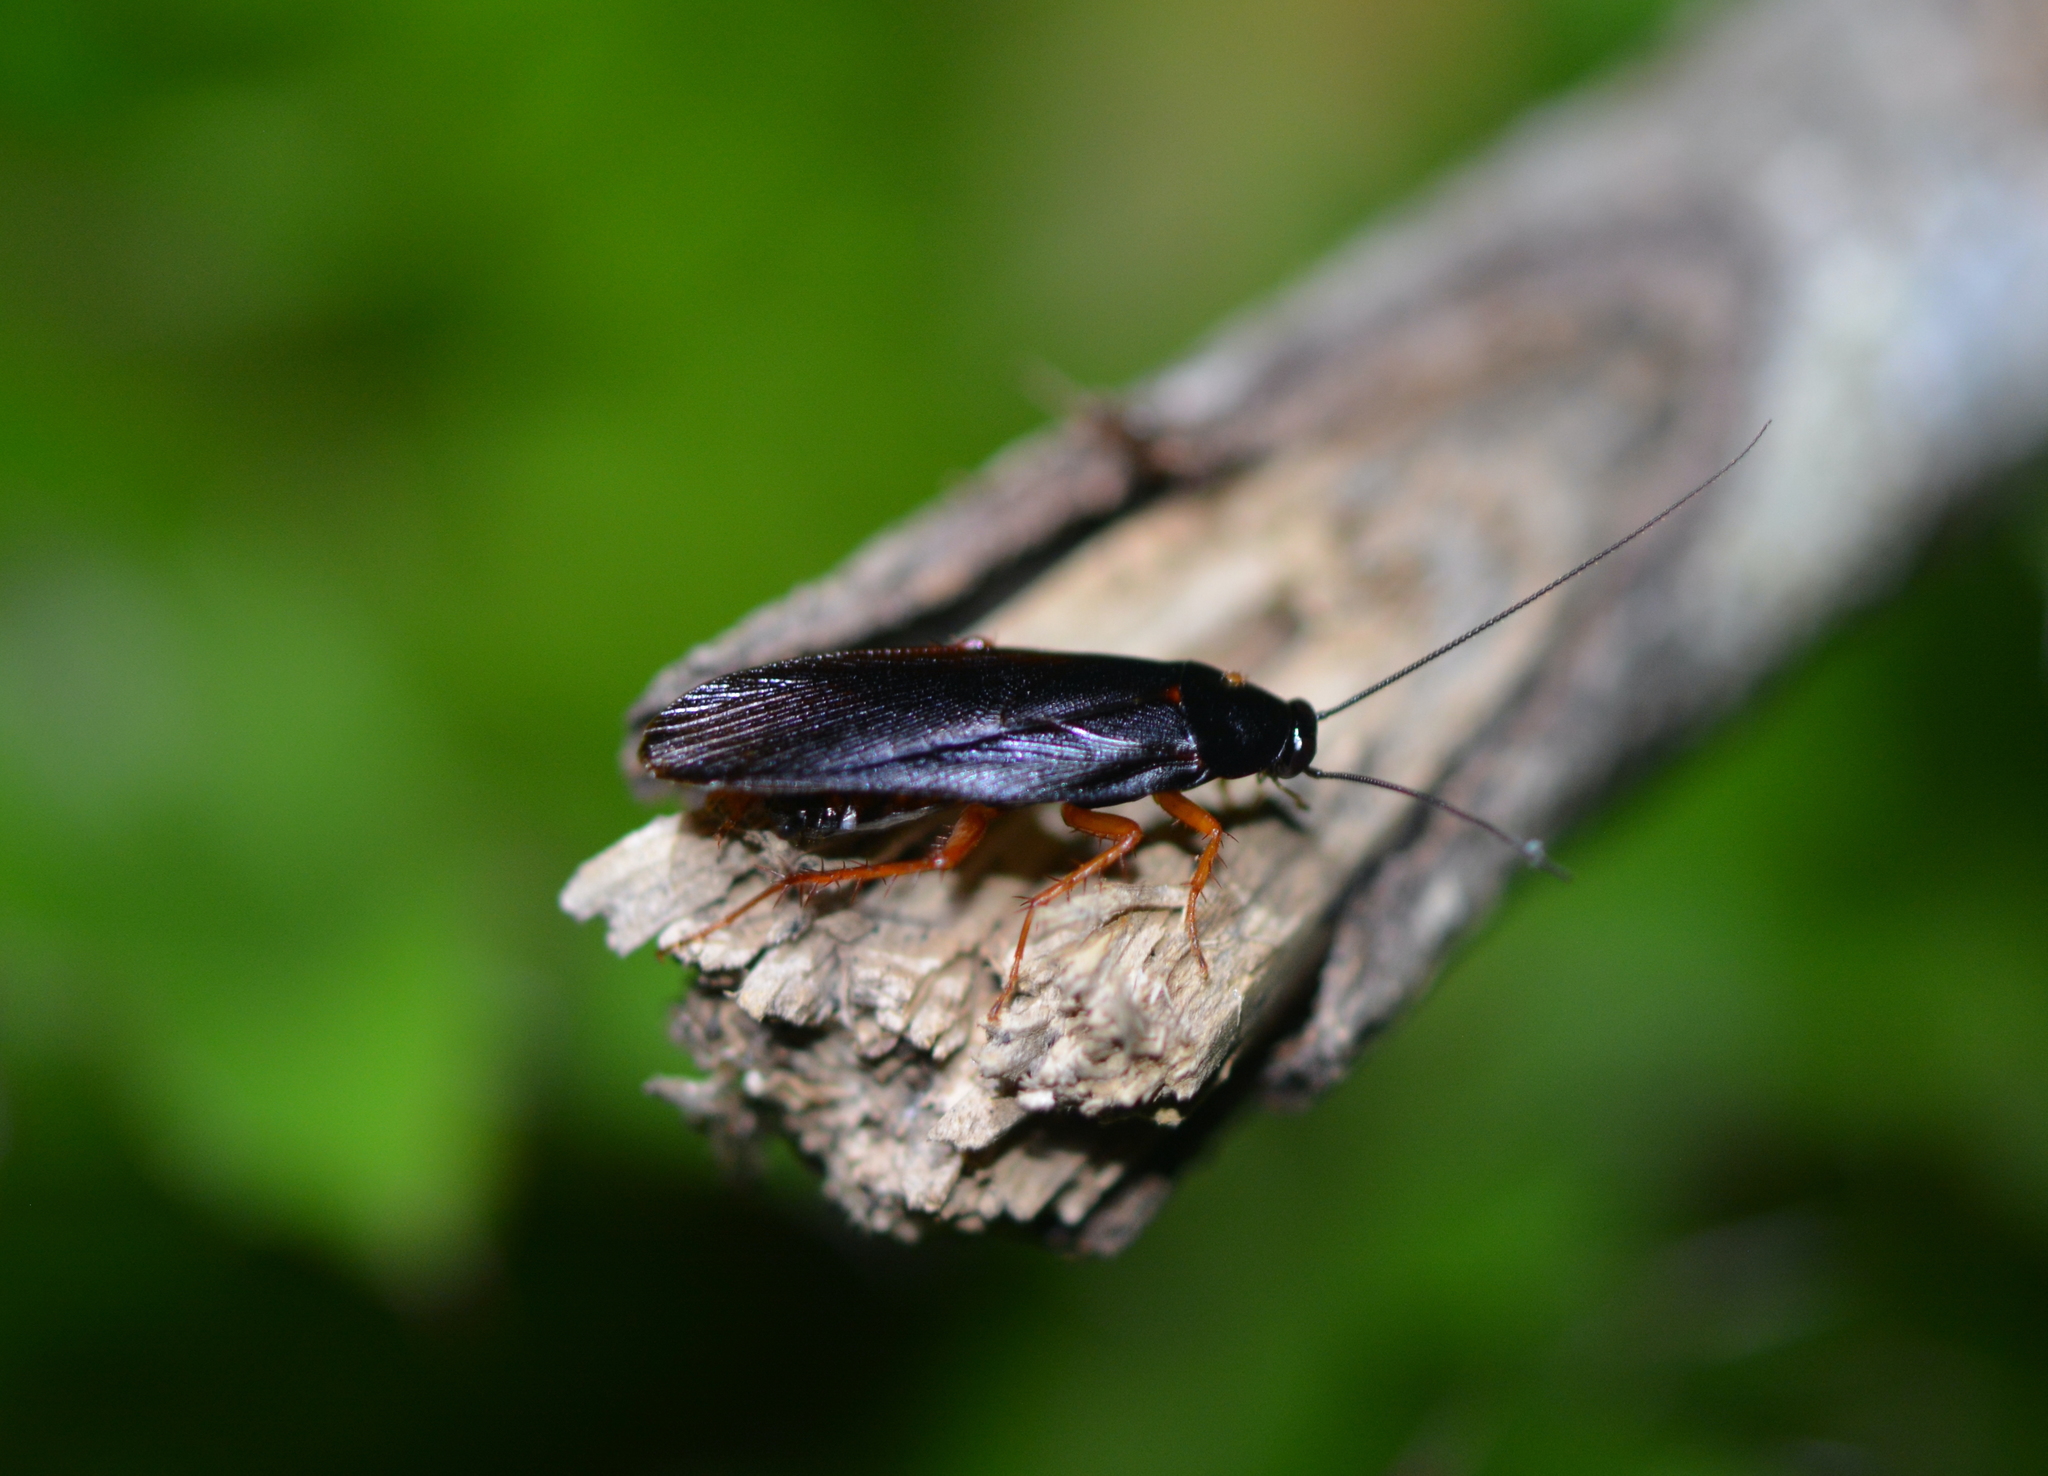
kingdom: Animalia
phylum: Arthropoda
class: Insecta
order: Blattodea
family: Ectobiidae
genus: Ischnoptera
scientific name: Ischnoptera deropeltiformis
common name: Dark wood cockroach
